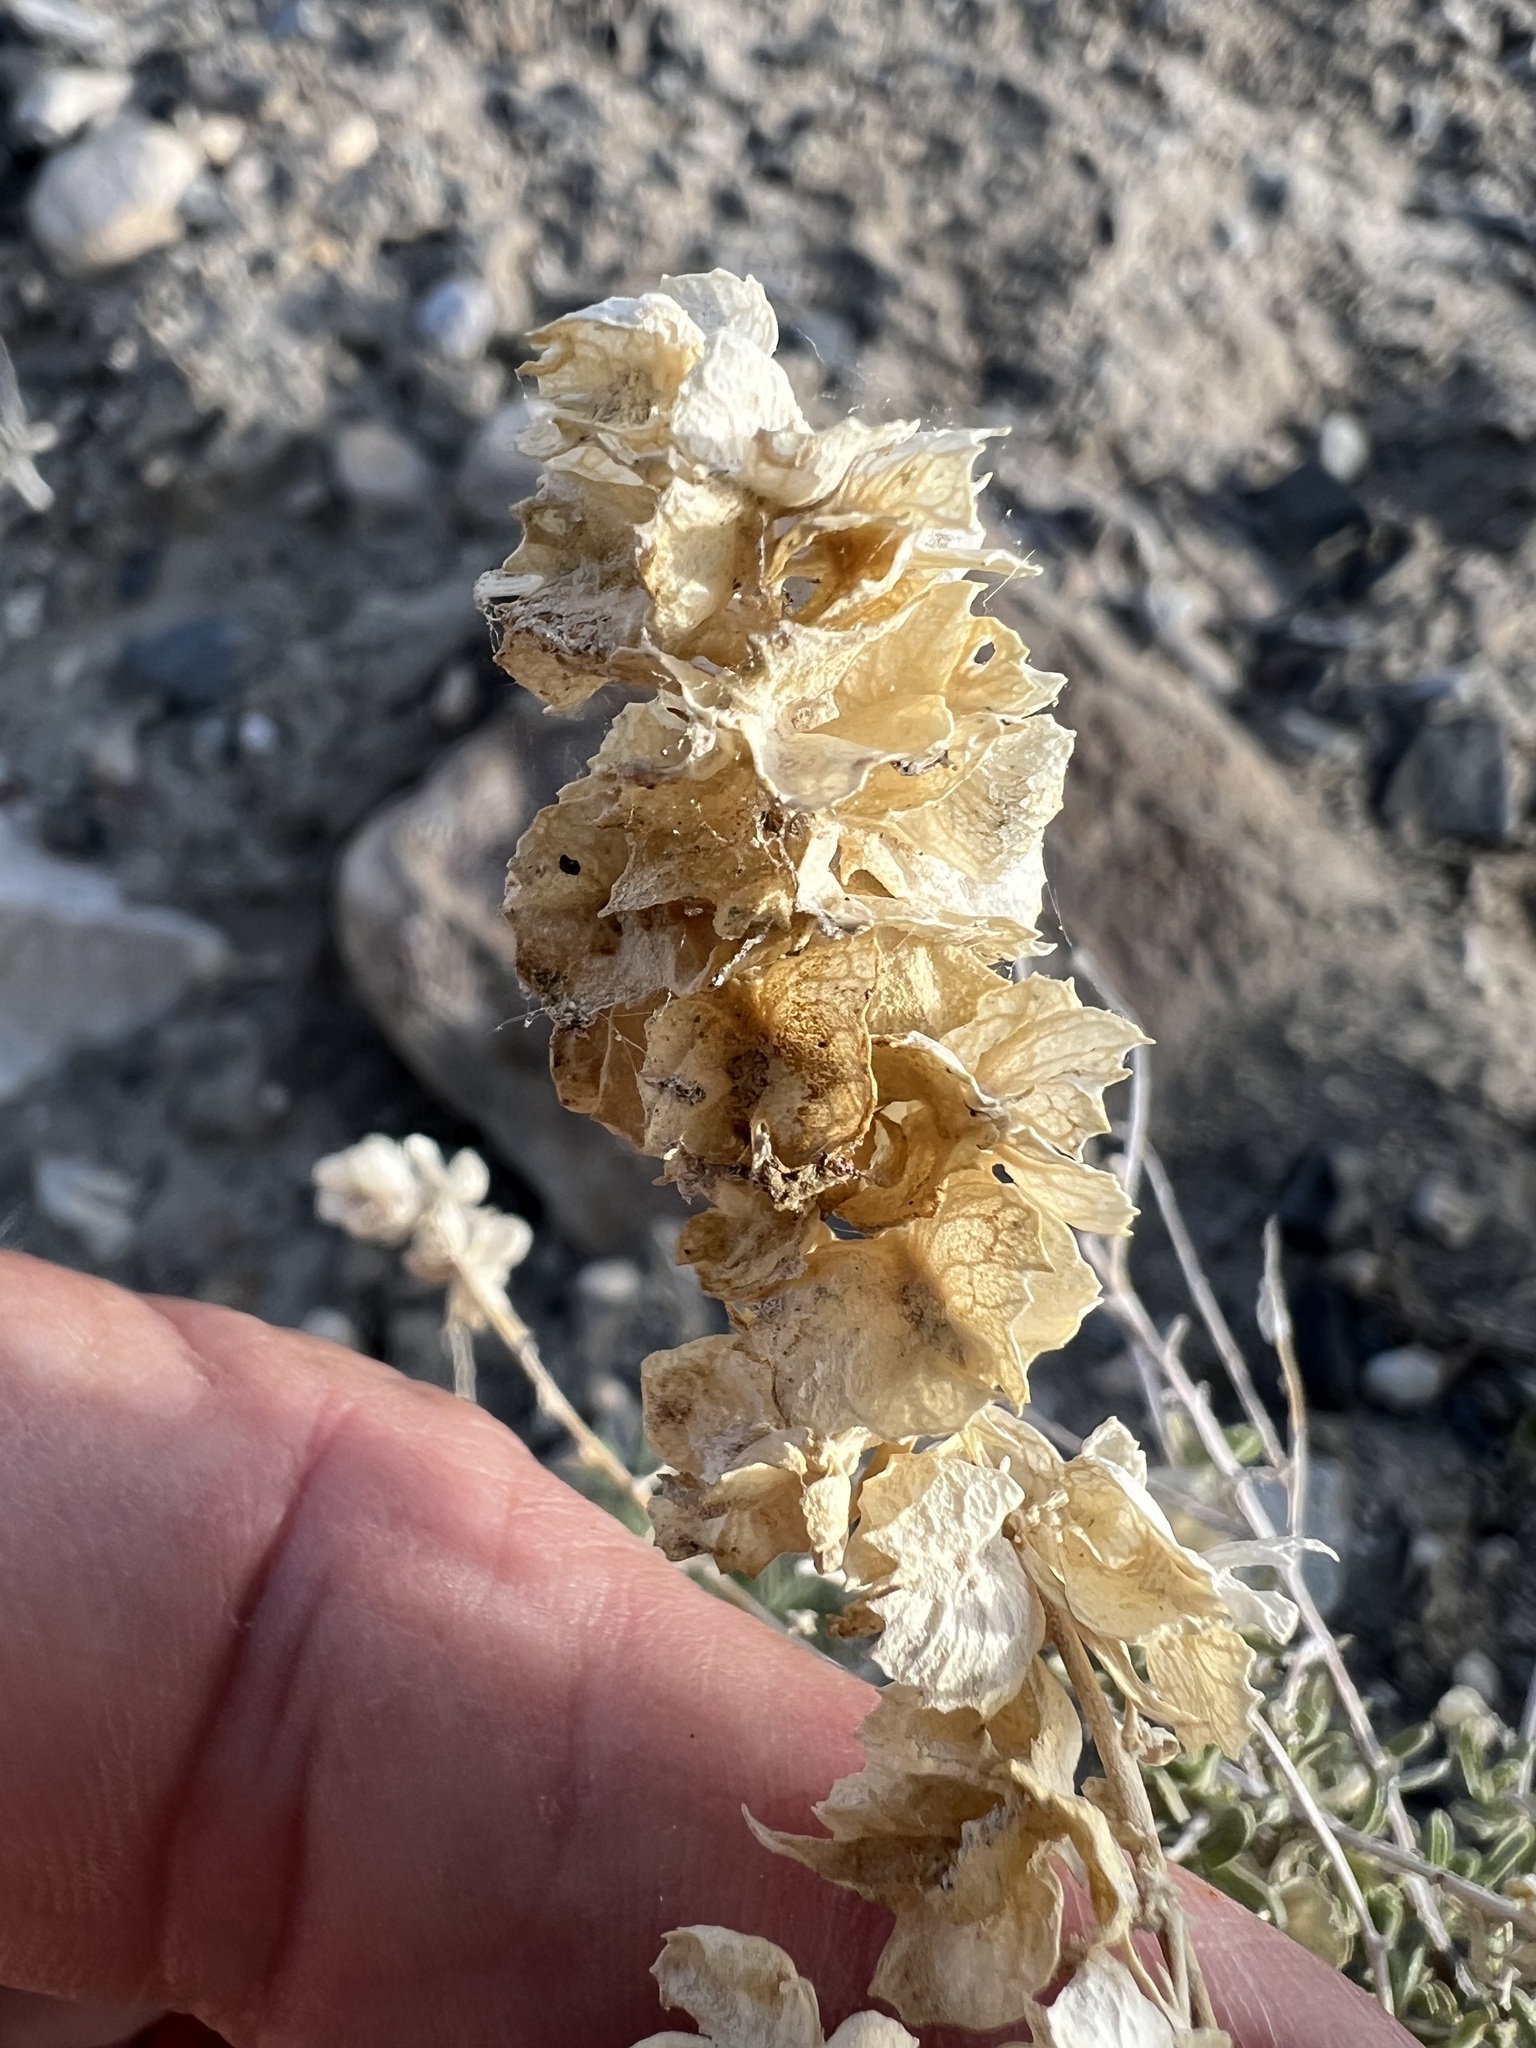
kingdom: Plantae
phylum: Tracheophyta
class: Magnoliopsida
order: Caryophyllales
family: Amaranthaceae
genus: Atriplex
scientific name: Atriplex canescens
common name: Four-wing saltbush
